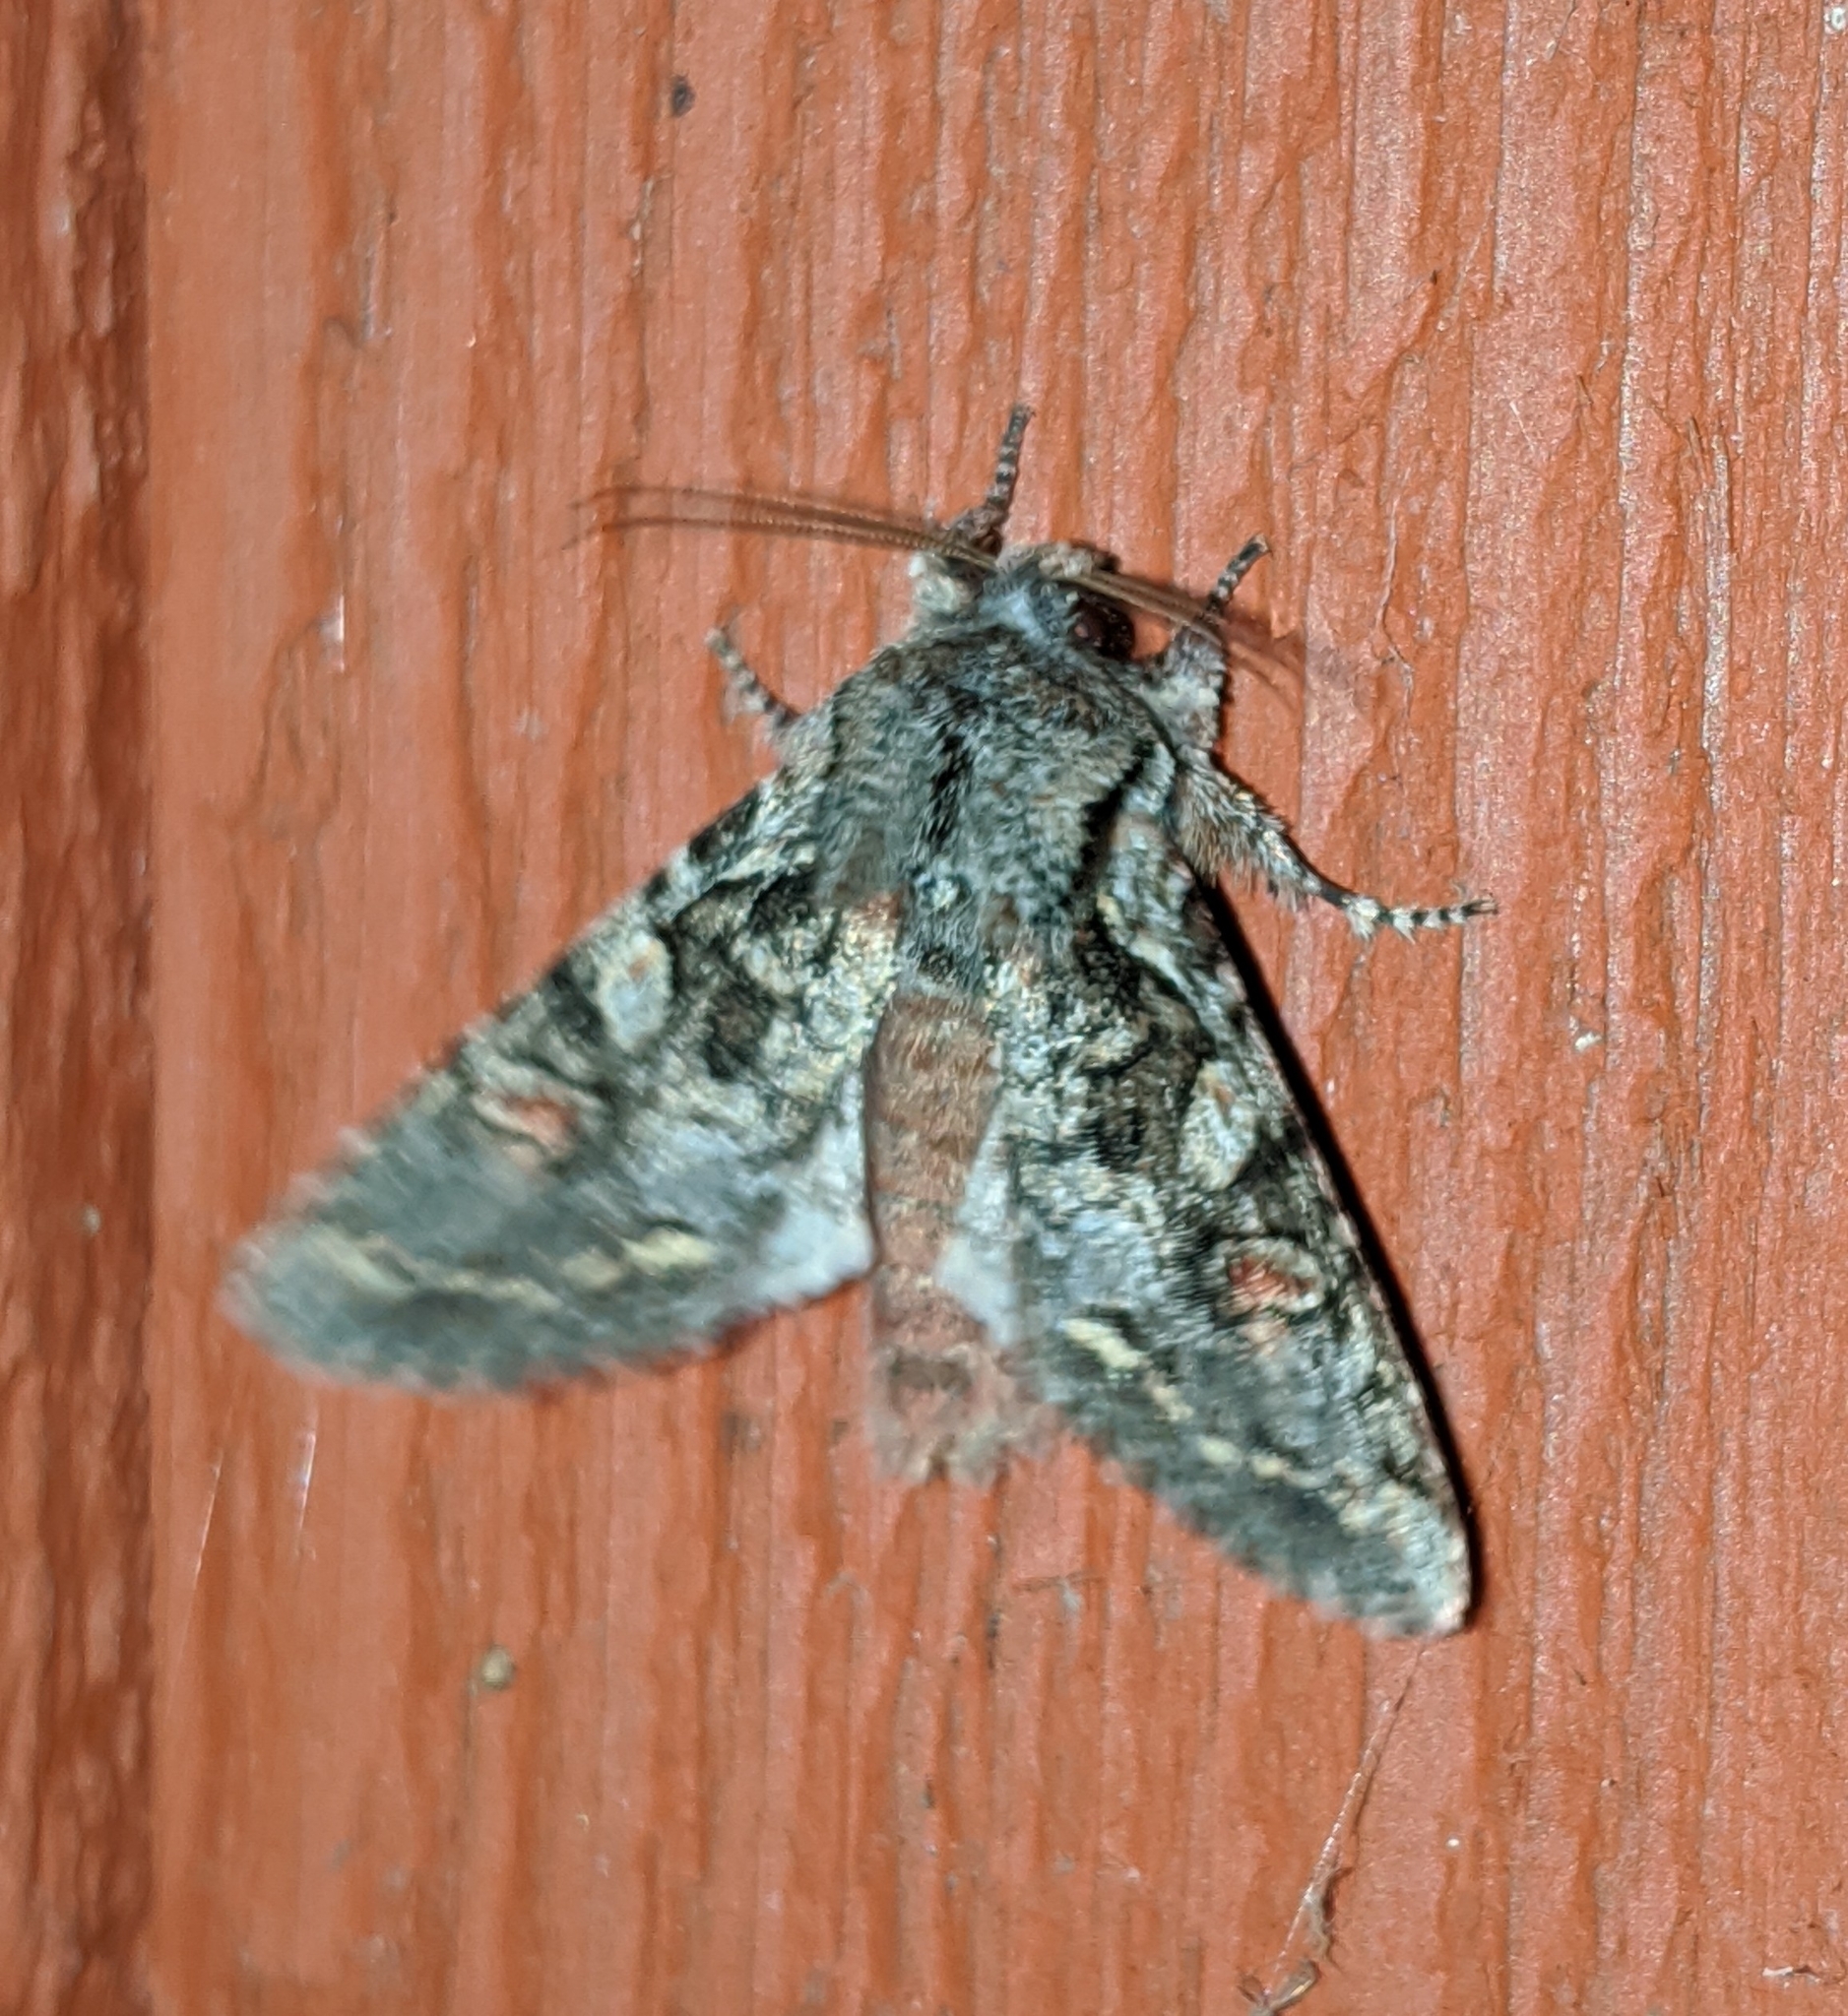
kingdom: Animalia
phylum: Arthropoda
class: Insecta
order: Lepidoptera
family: Noctuidae
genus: Egira
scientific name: Egira hiemalis
